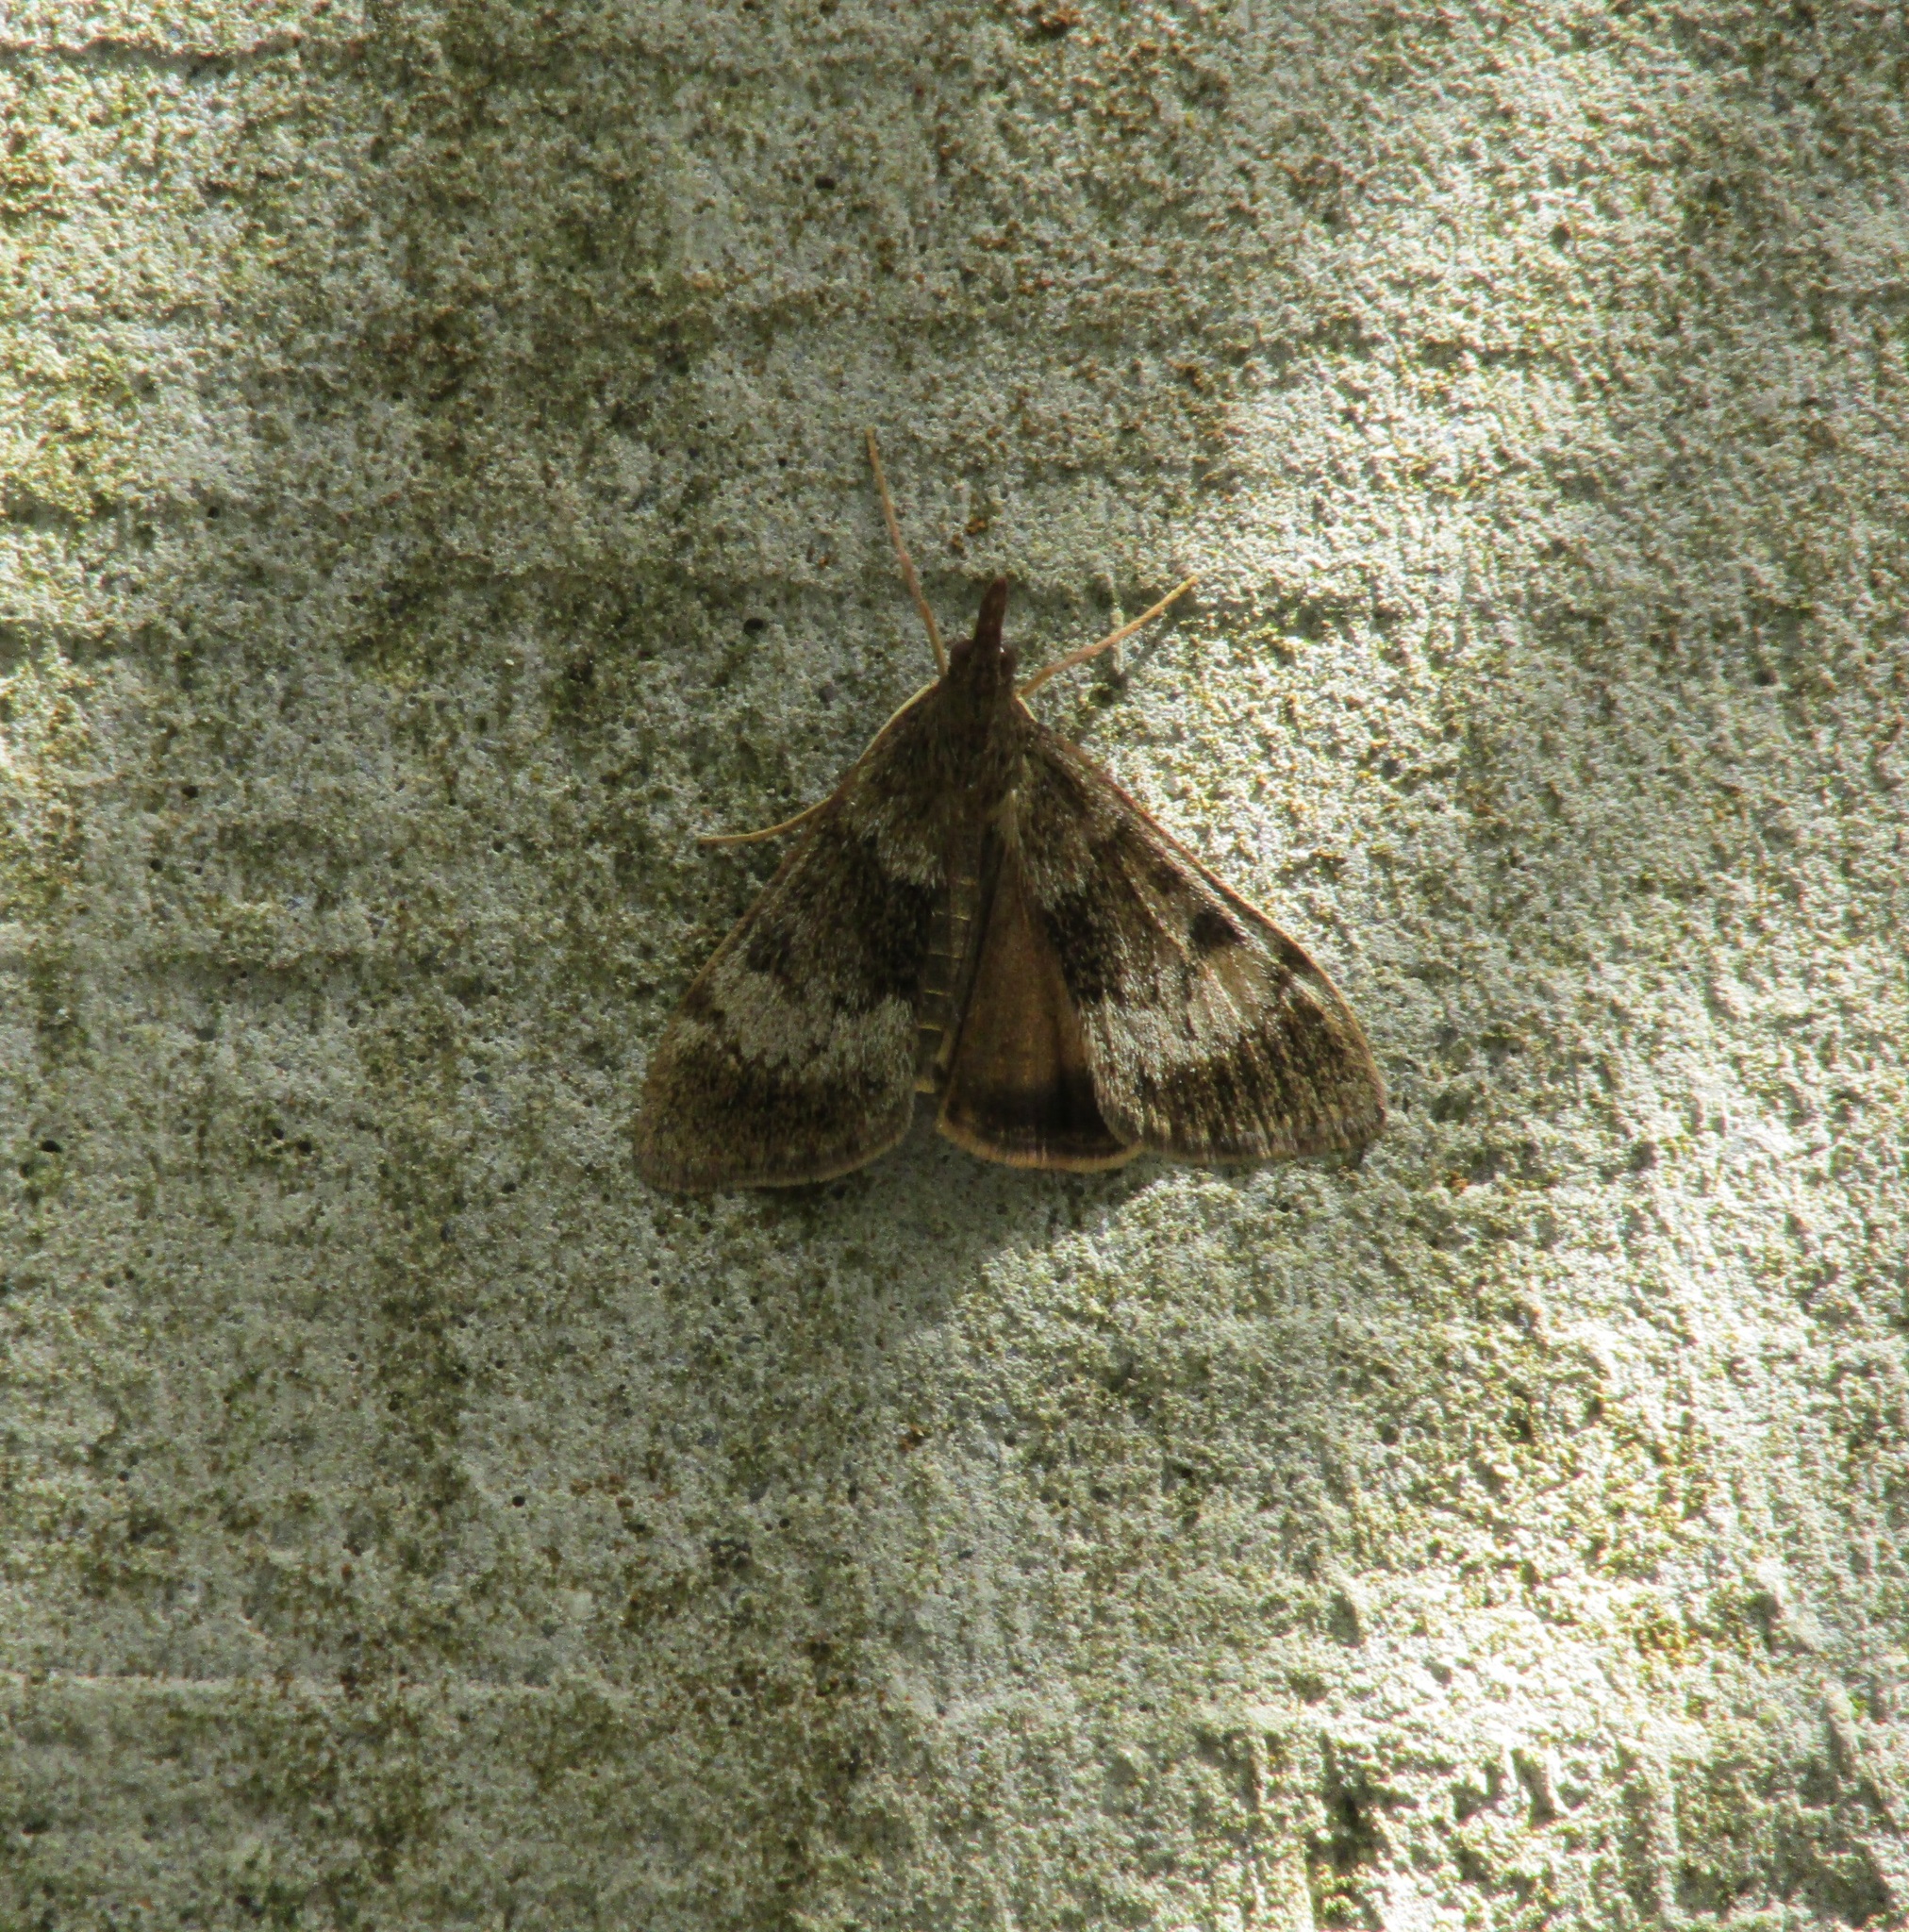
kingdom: Animalia
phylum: Arthropoda
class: Insecta
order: Lepidoptera
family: Crambidae
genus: Uresiphita
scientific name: Uresiphita
